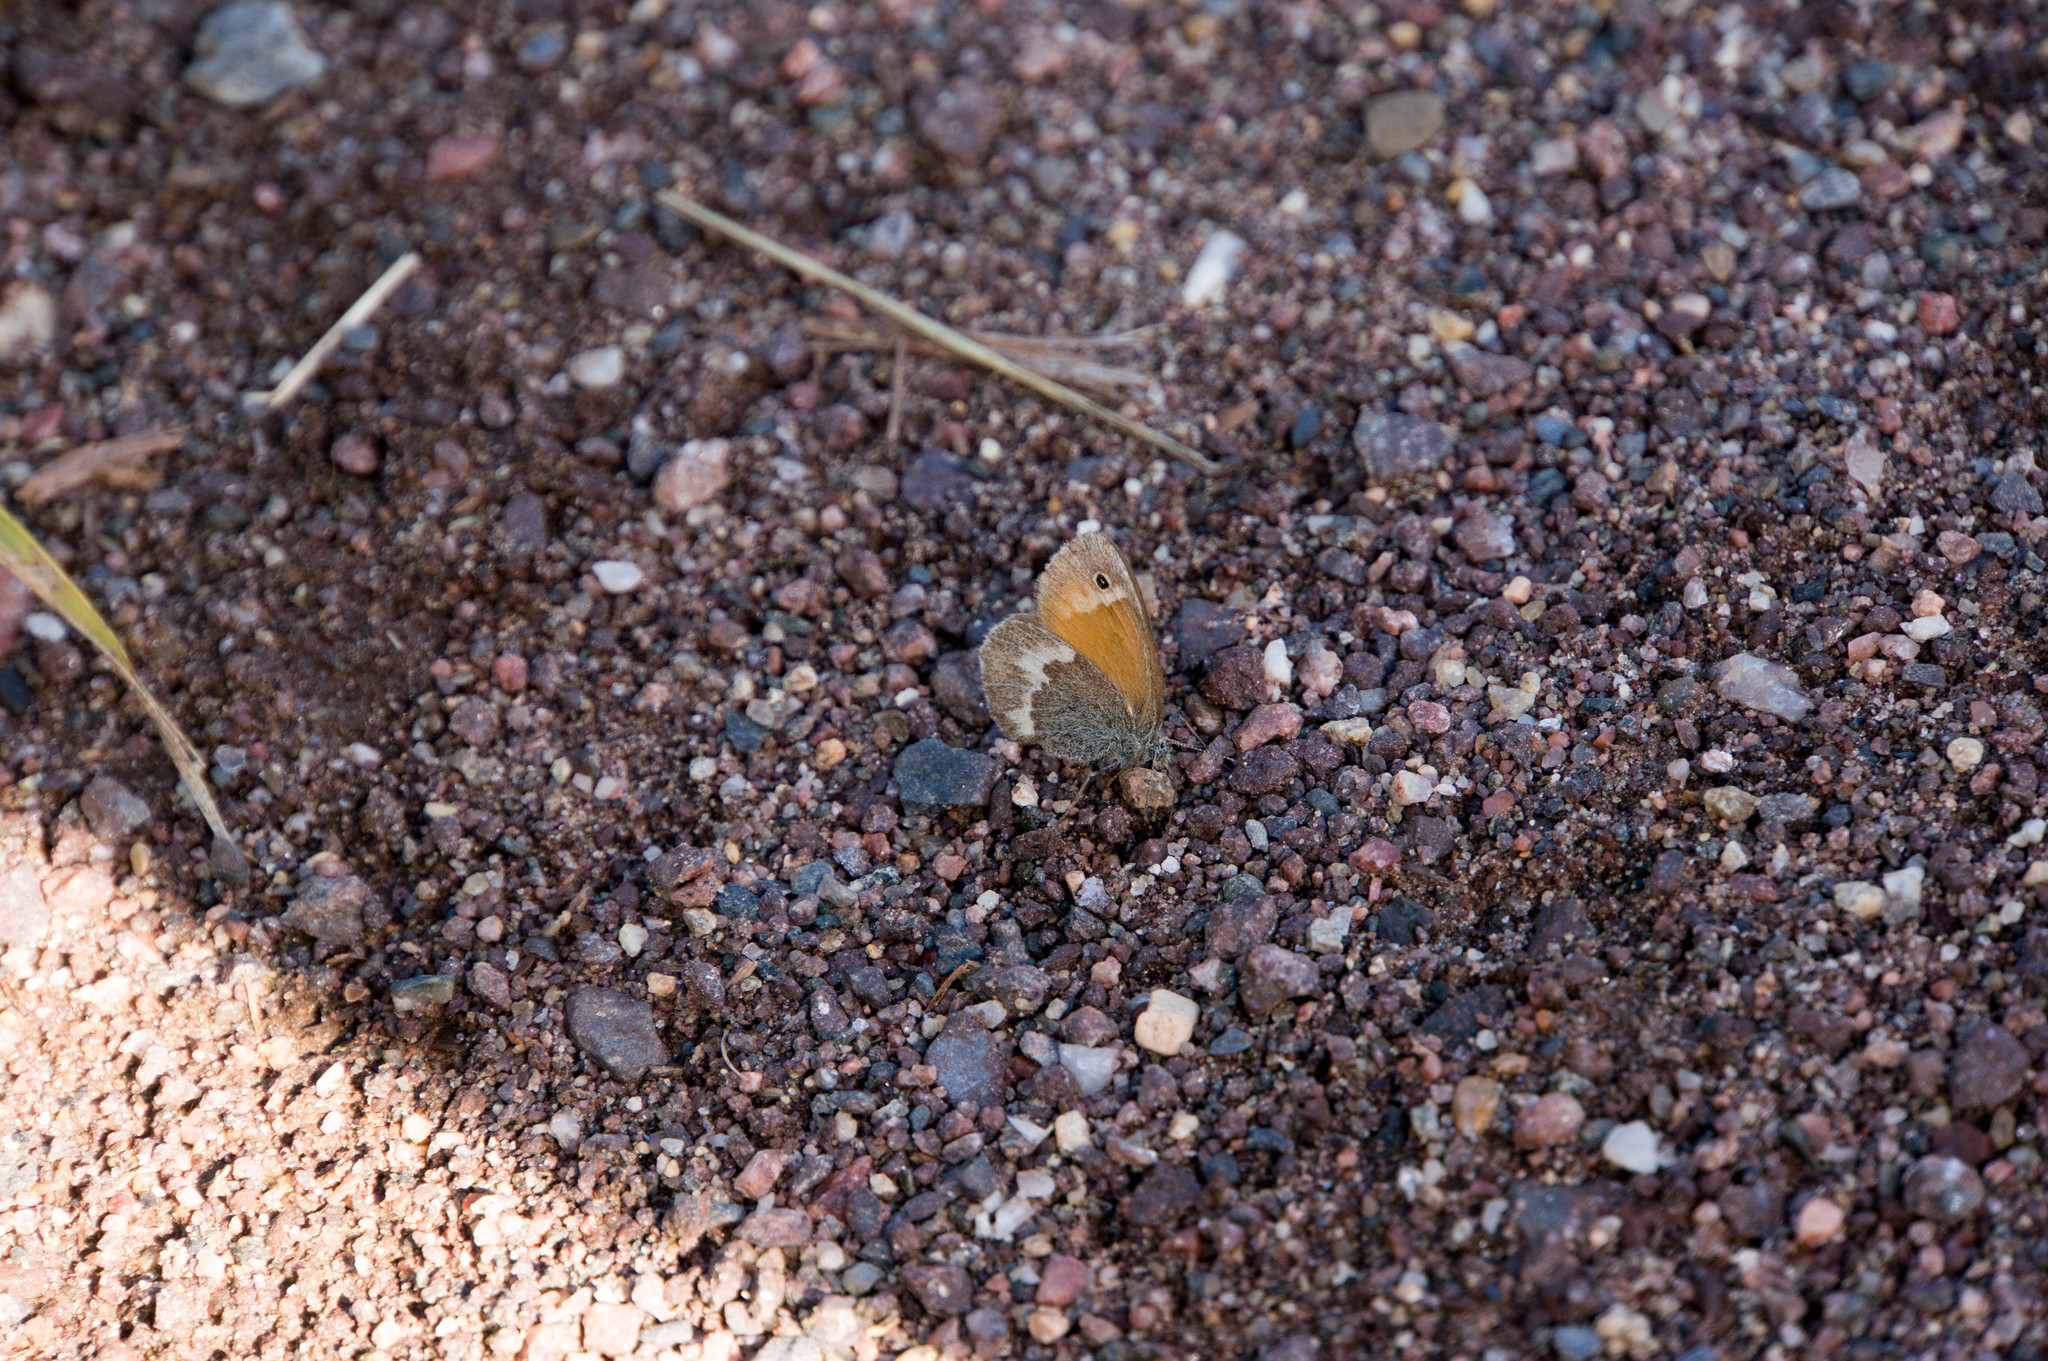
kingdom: Animalia
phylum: Arthropoda
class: Insecta
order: Lepidoptera
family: Nymphalidae
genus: Coenonympha
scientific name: Coenonympha california
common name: Common ringlet
